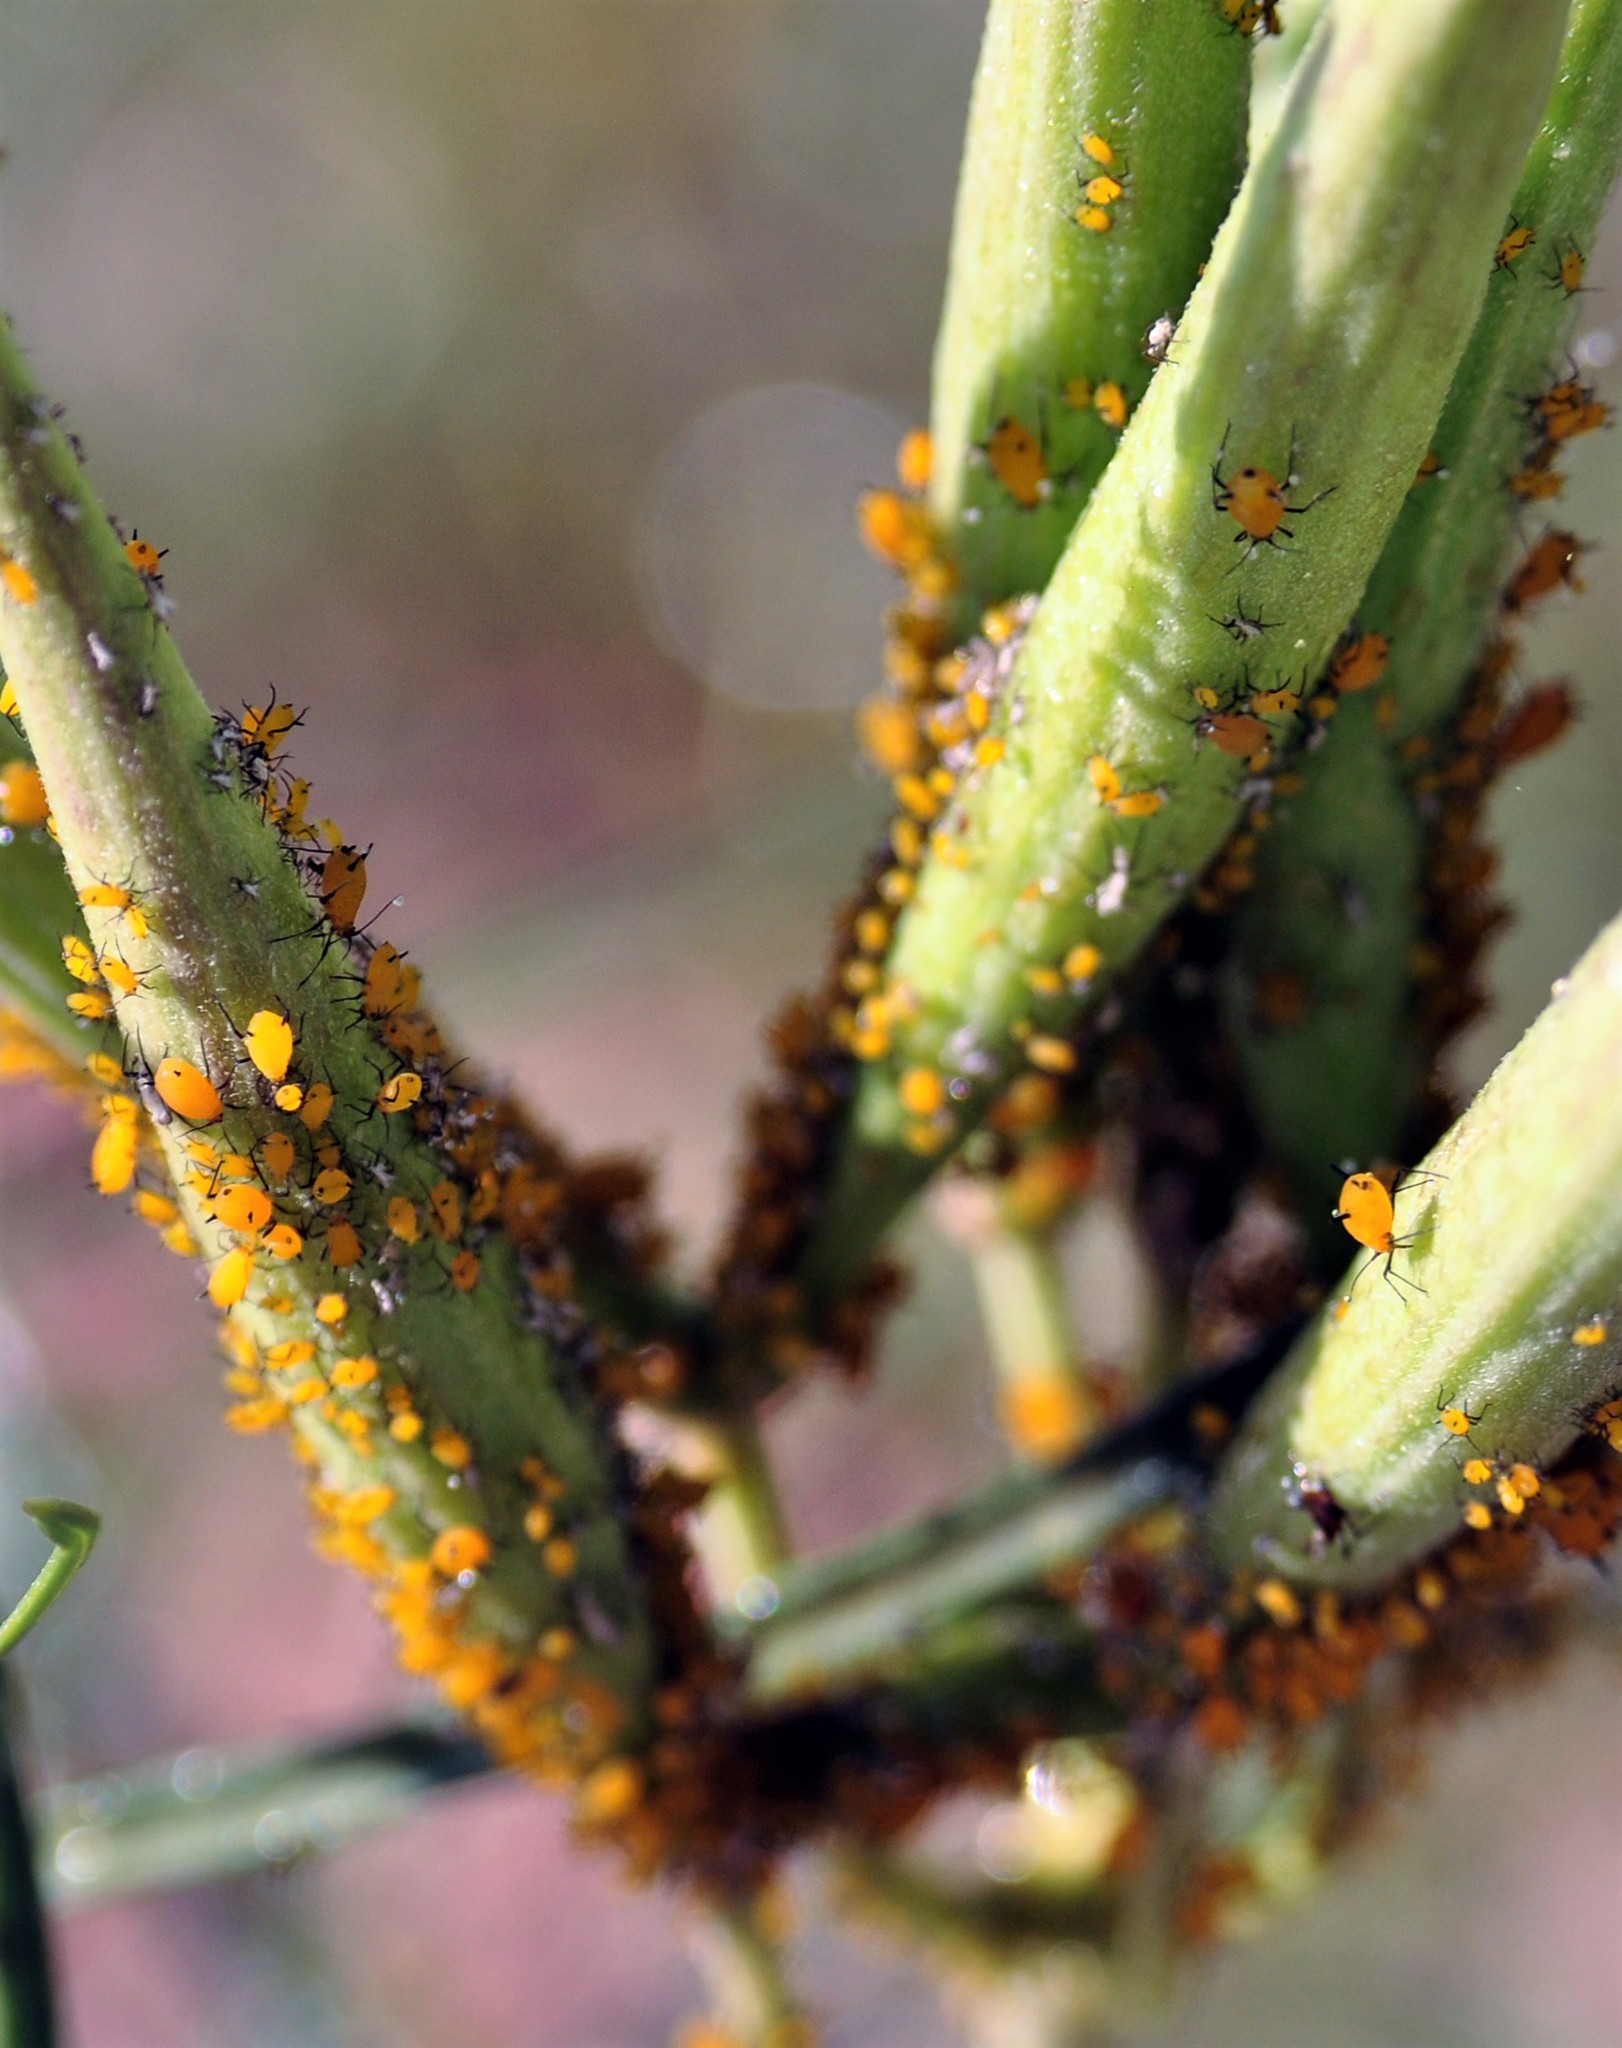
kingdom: Animalia
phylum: Arthropoda
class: Insecta
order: Hemiptera
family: Aphididae
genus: Aphis
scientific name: Aphis nerii
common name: Oleander aphid
